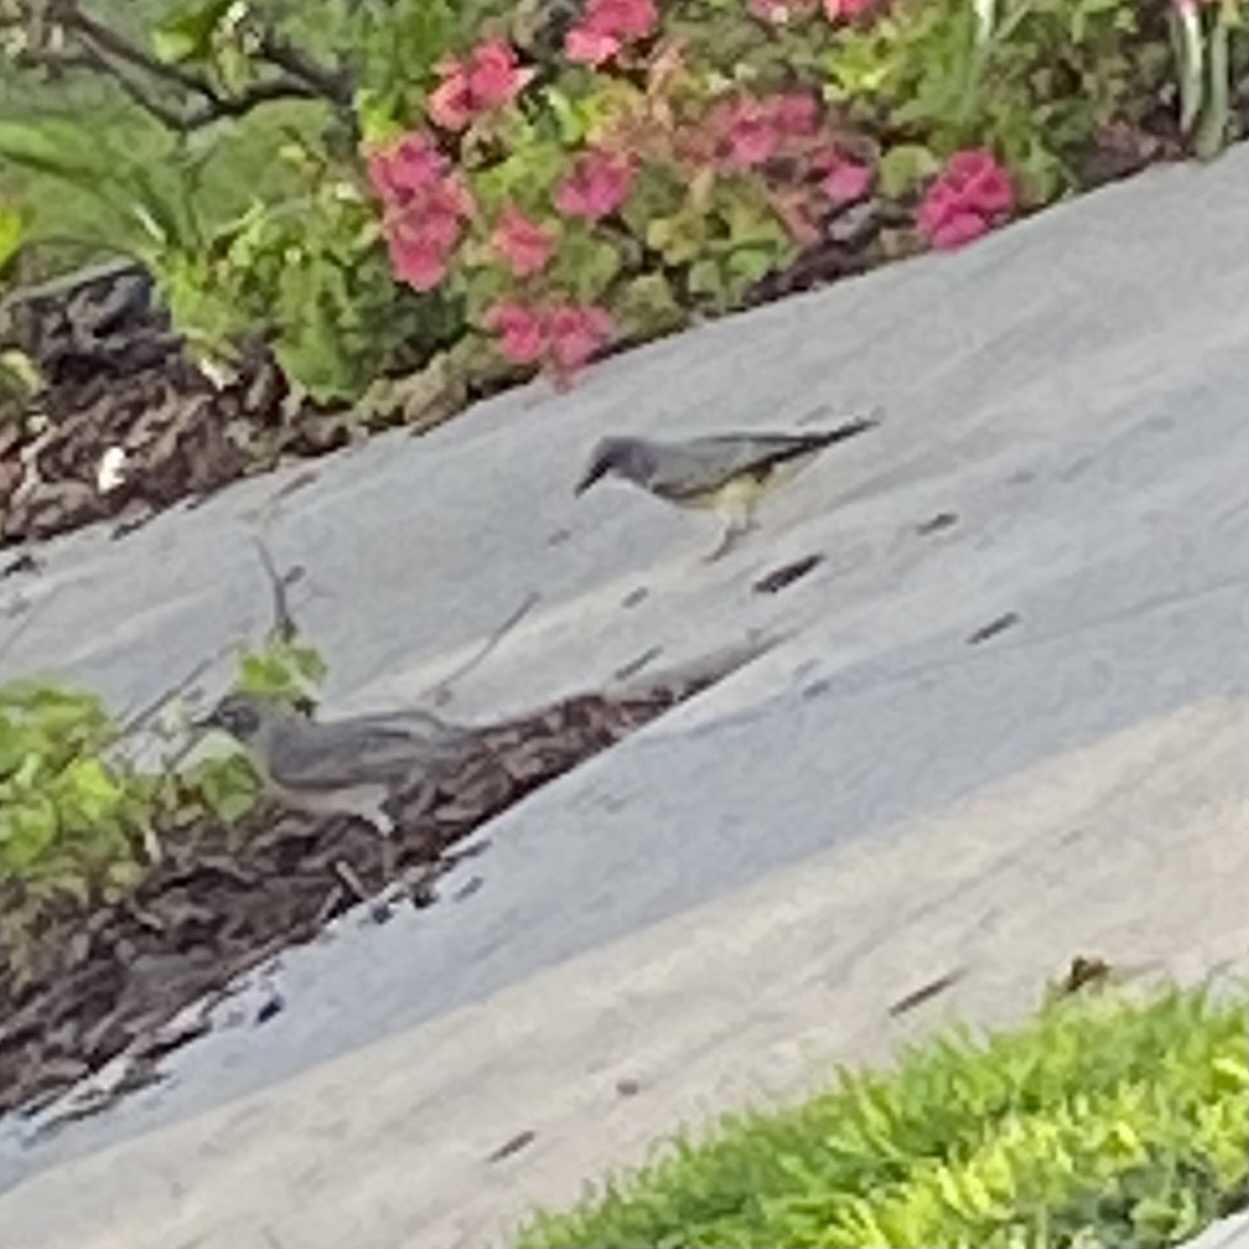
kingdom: Animalia
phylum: Chordata
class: Aves
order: Passeriformes
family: Tyrannidae
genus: Tyrannus
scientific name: Tyrannus vociferans
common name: Cassin's kingbird
